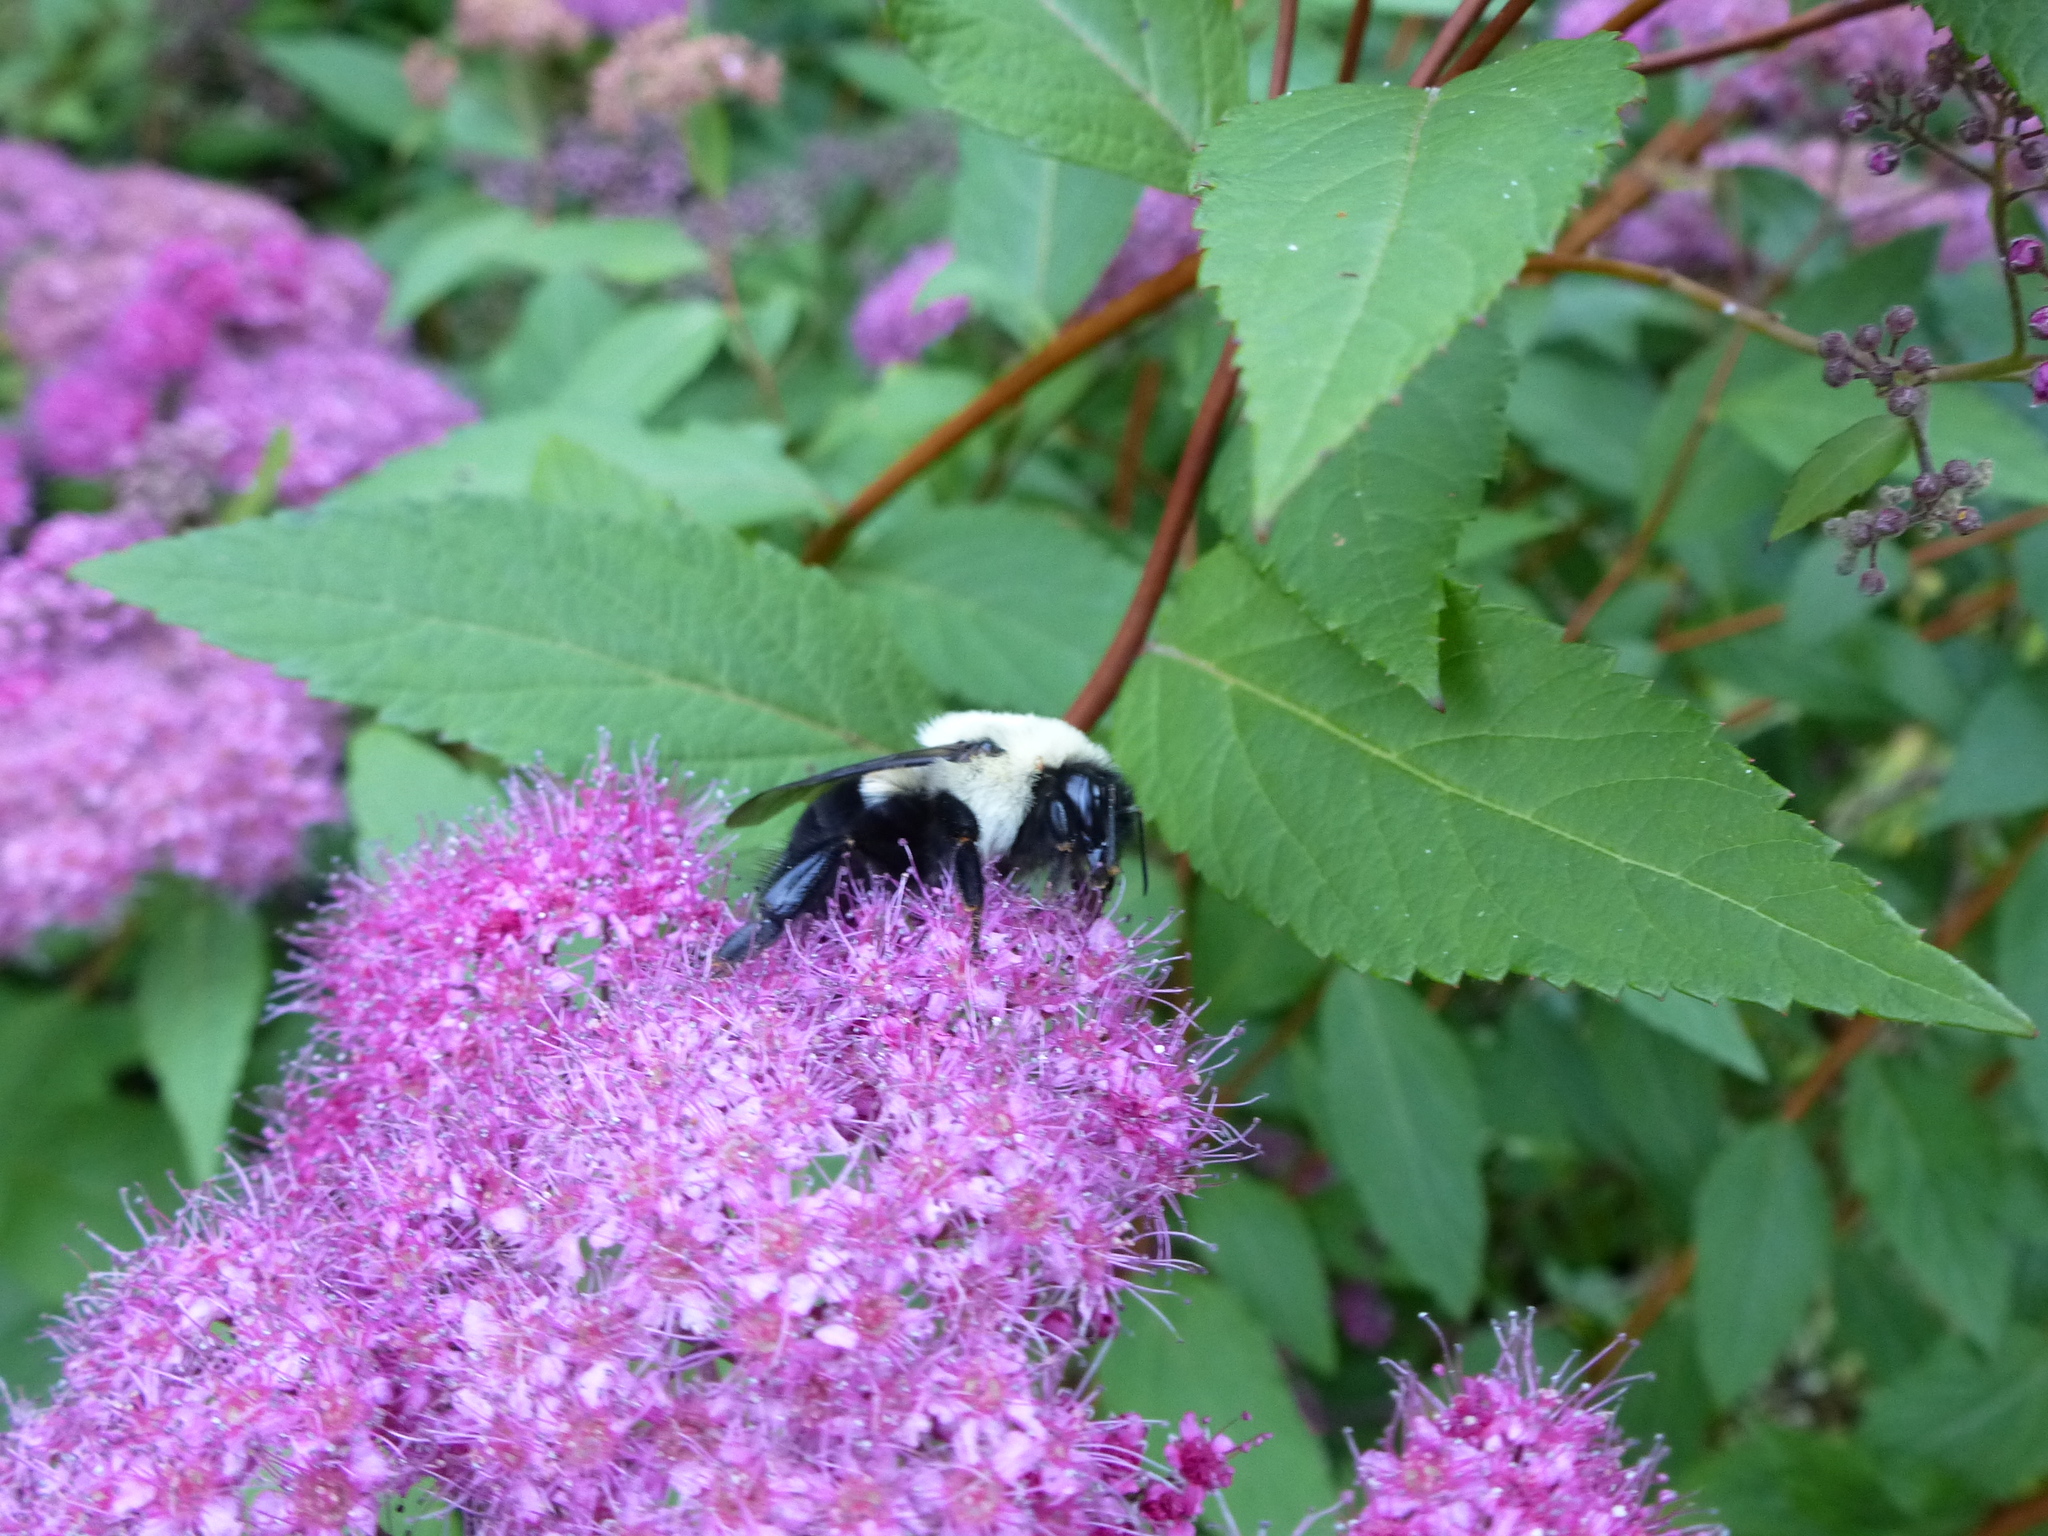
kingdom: Animalia
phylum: Arthropoda
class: Insecta
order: Hymenoptera
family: Apidae
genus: Bombus
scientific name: Bombus impatiens
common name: Common eastern bumble bee
